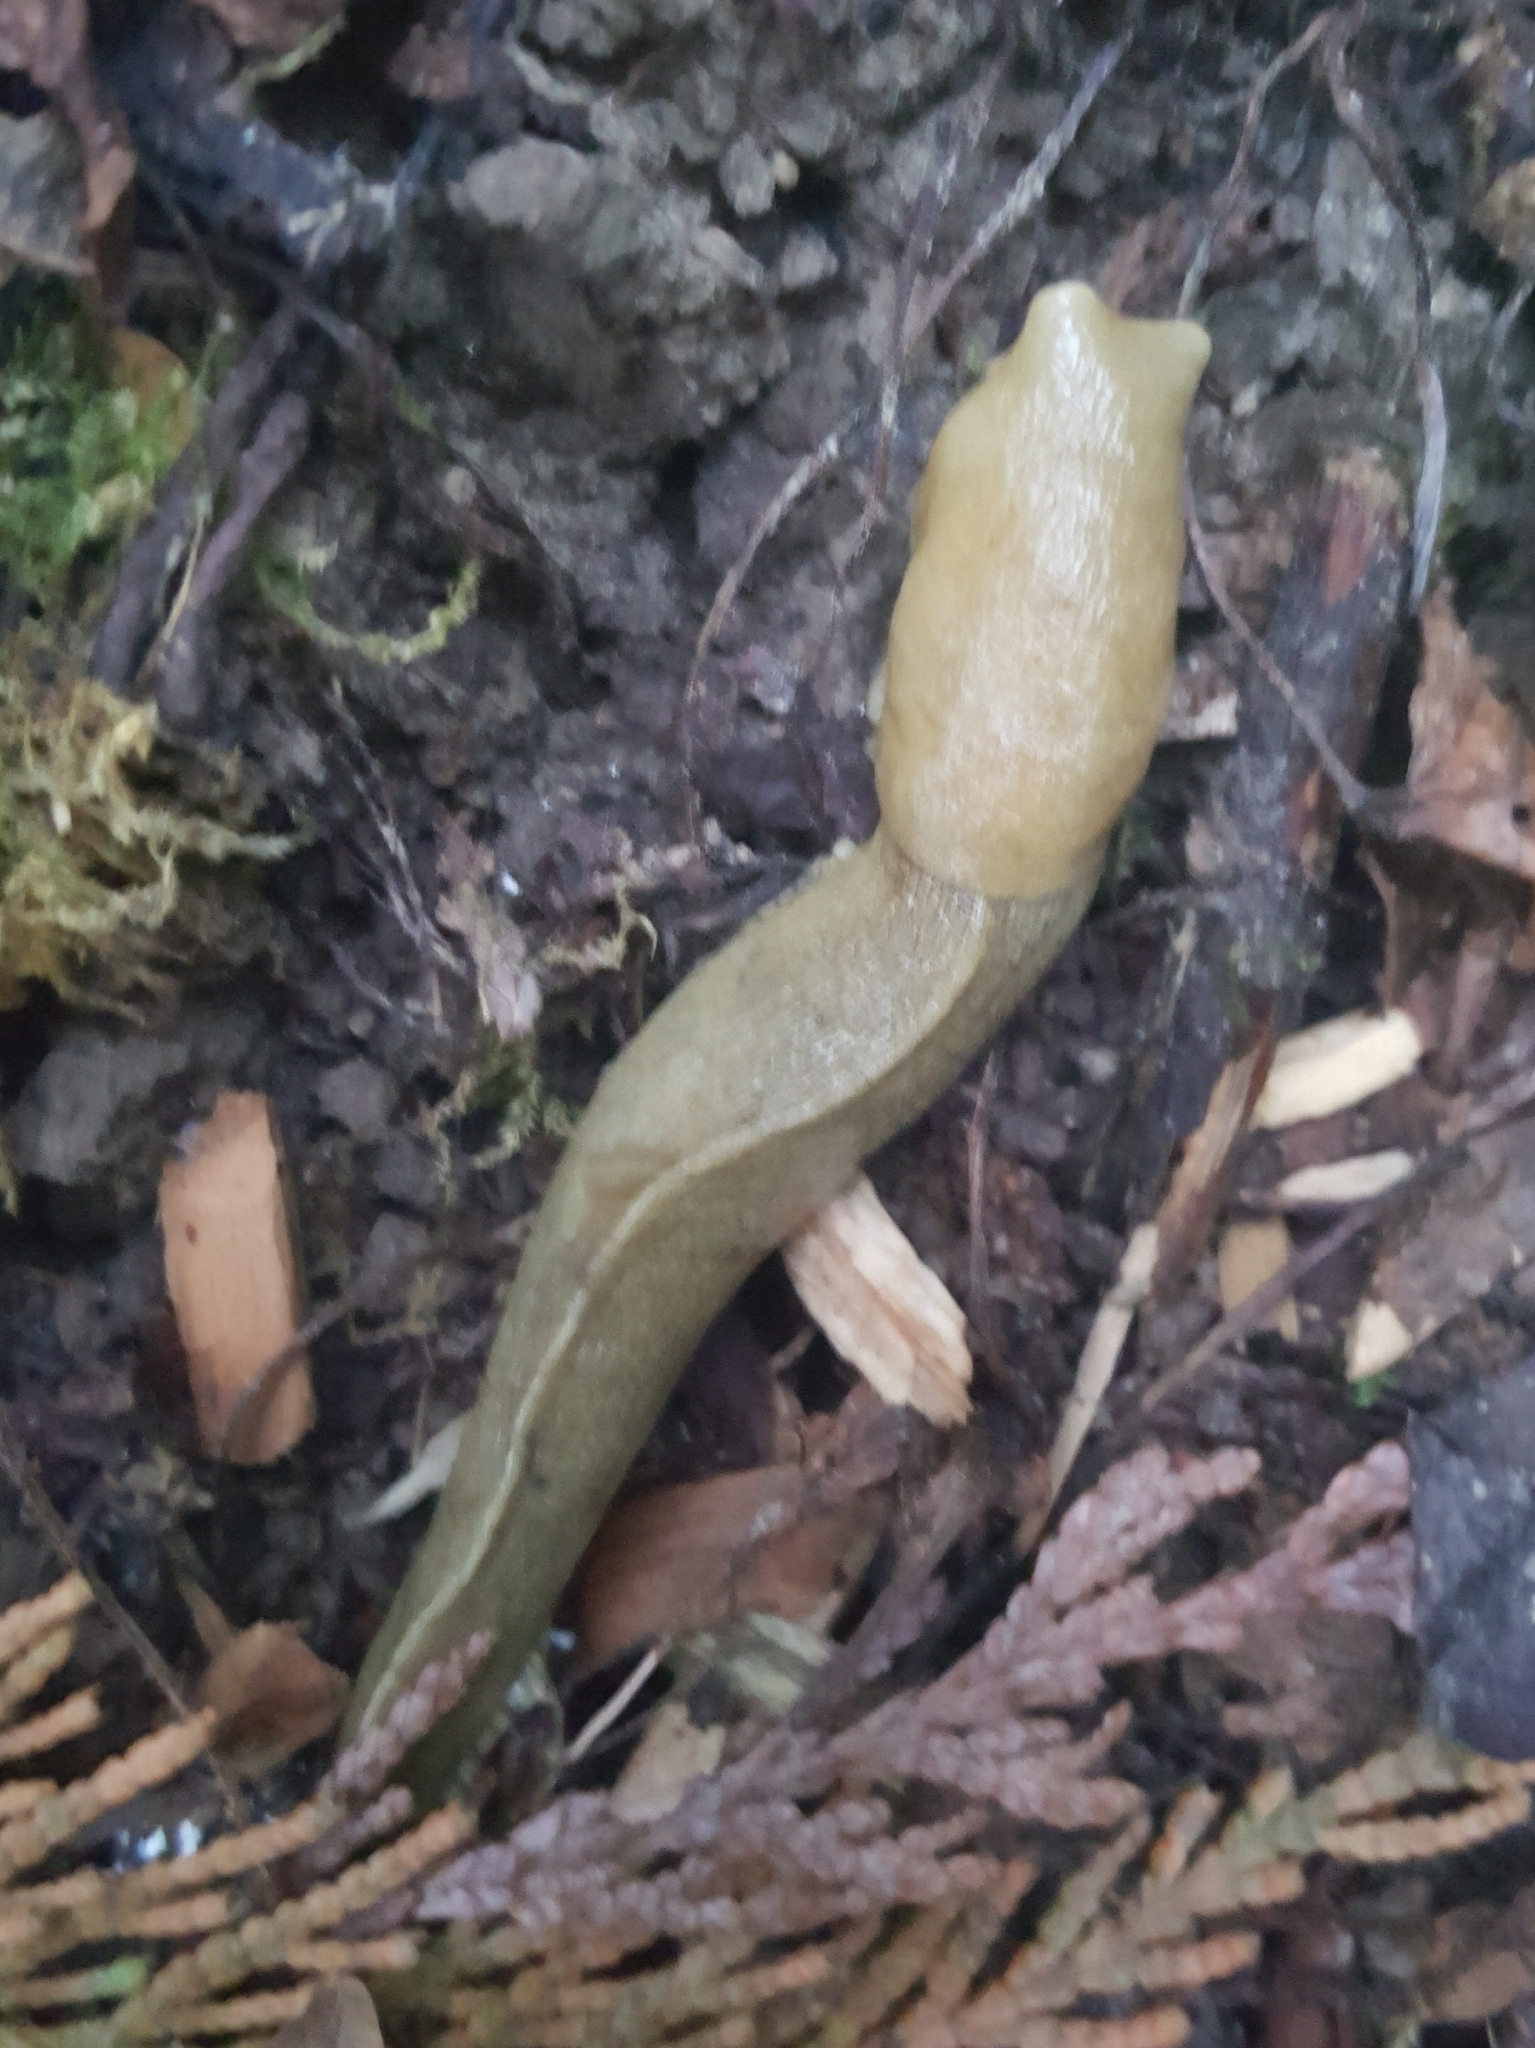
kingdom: Animalia
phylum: Mollusca
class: Gastropoda
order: Stylommatophora
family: Ariolimacidae
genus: Ariolimax
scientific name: Ariolimax columbianus
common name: Pacific banana slug
